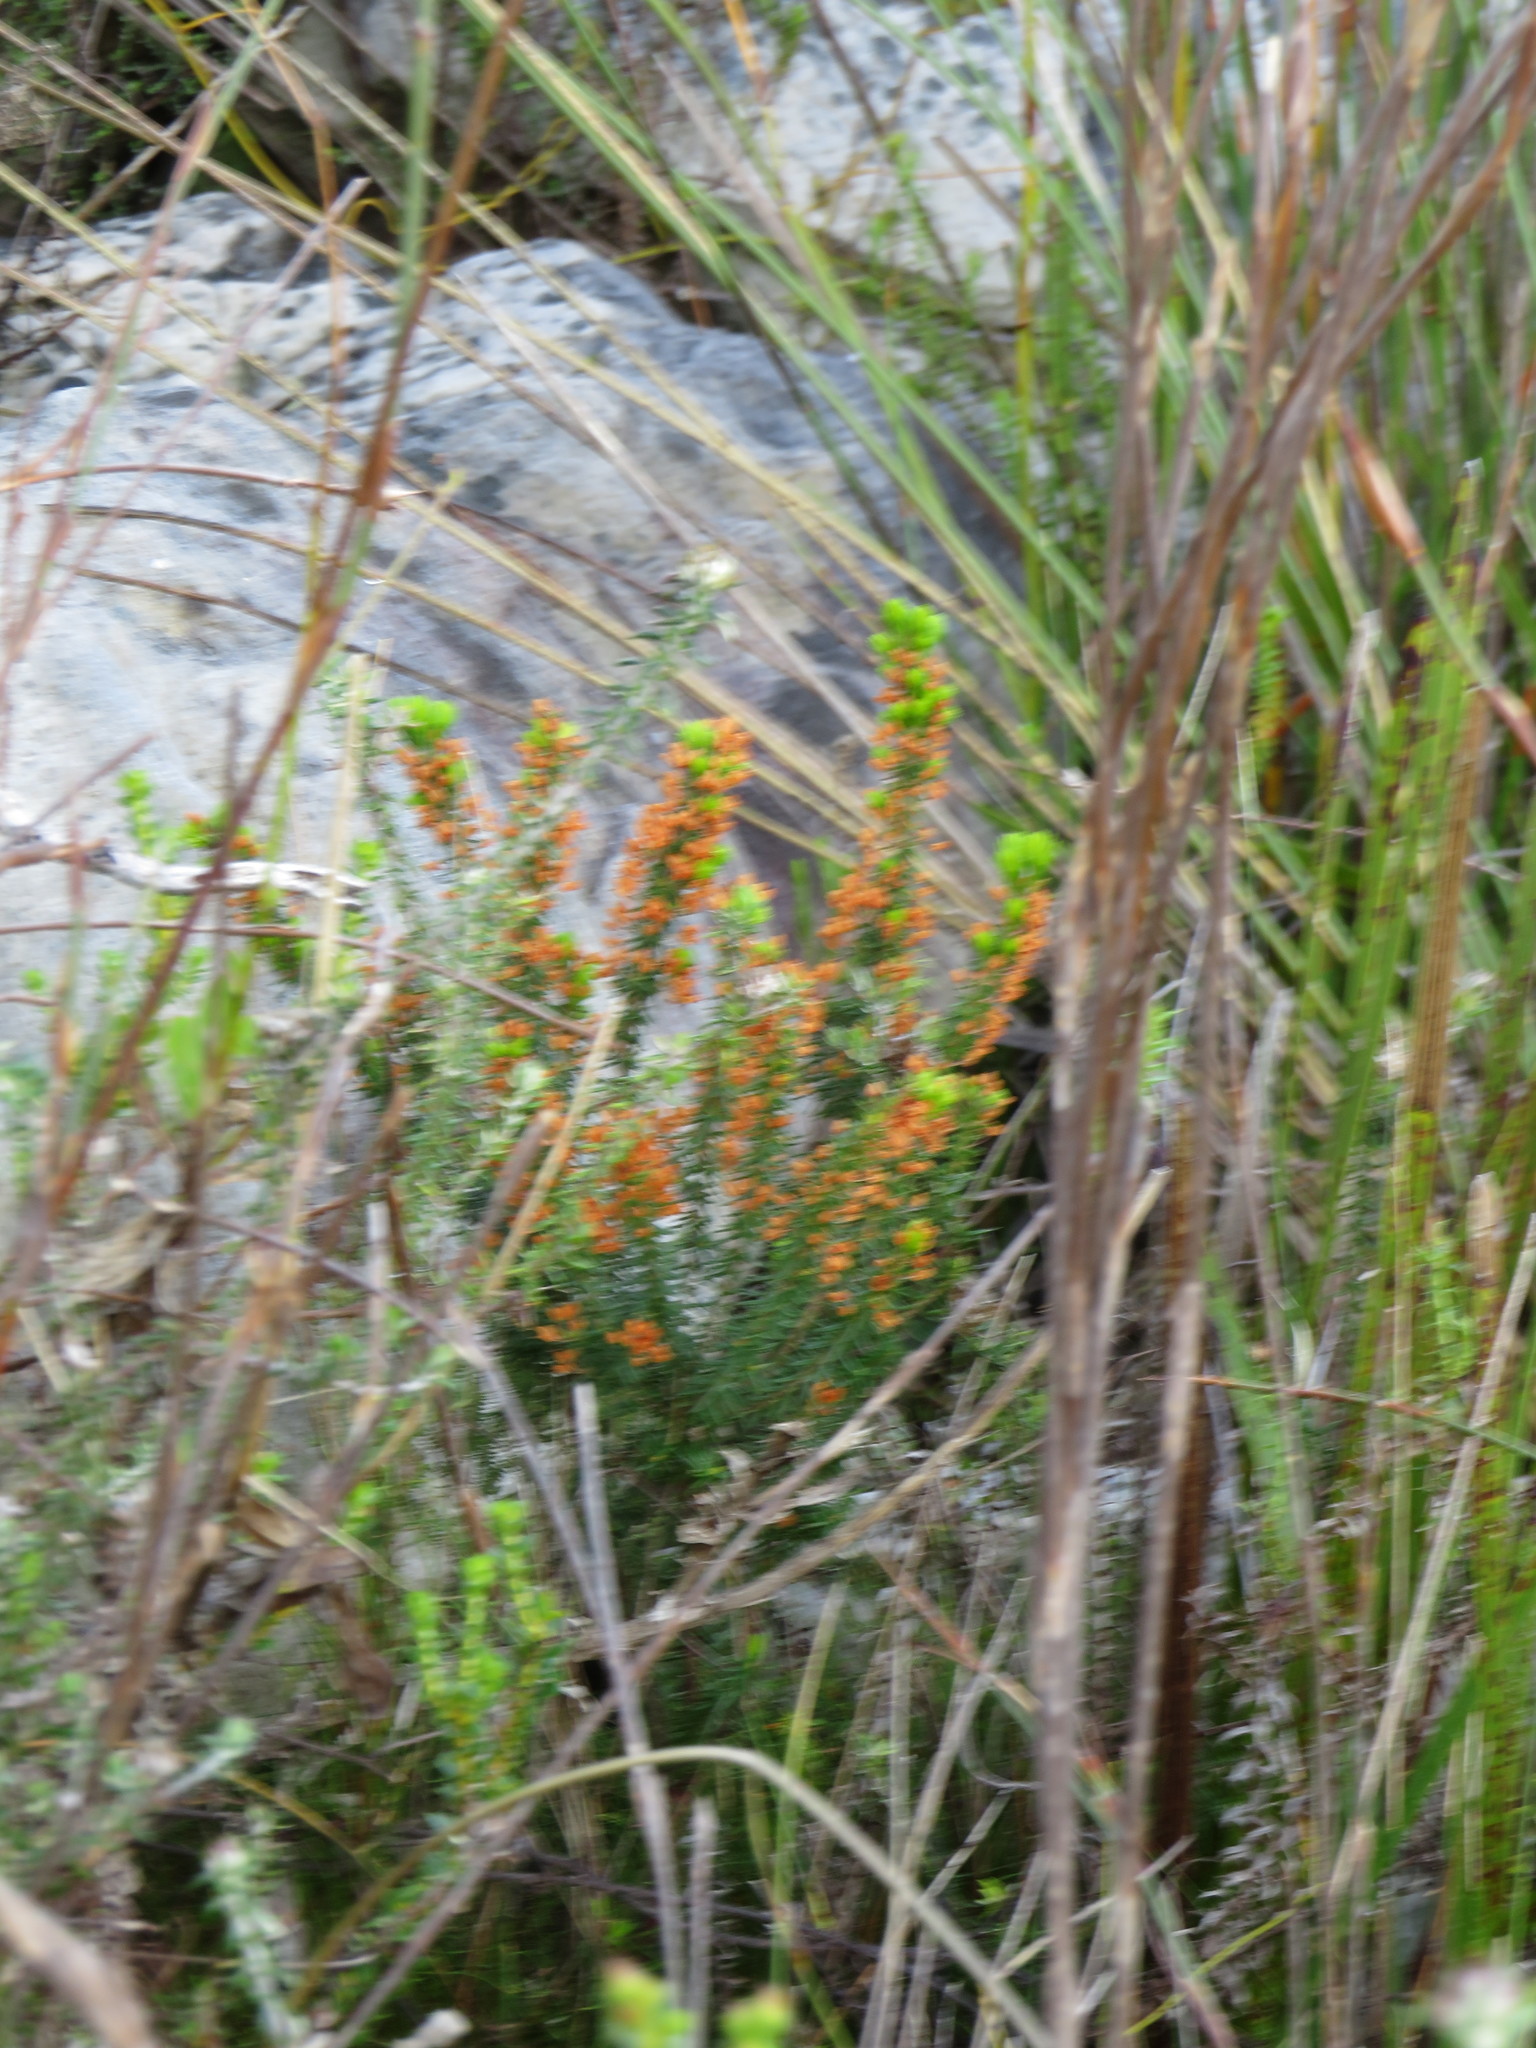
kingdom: Plantae
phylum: Tracheophyta
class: Magnoliopsida
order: Ericales
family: Ericaceae
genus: Erica
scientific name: Erica nudiflora
